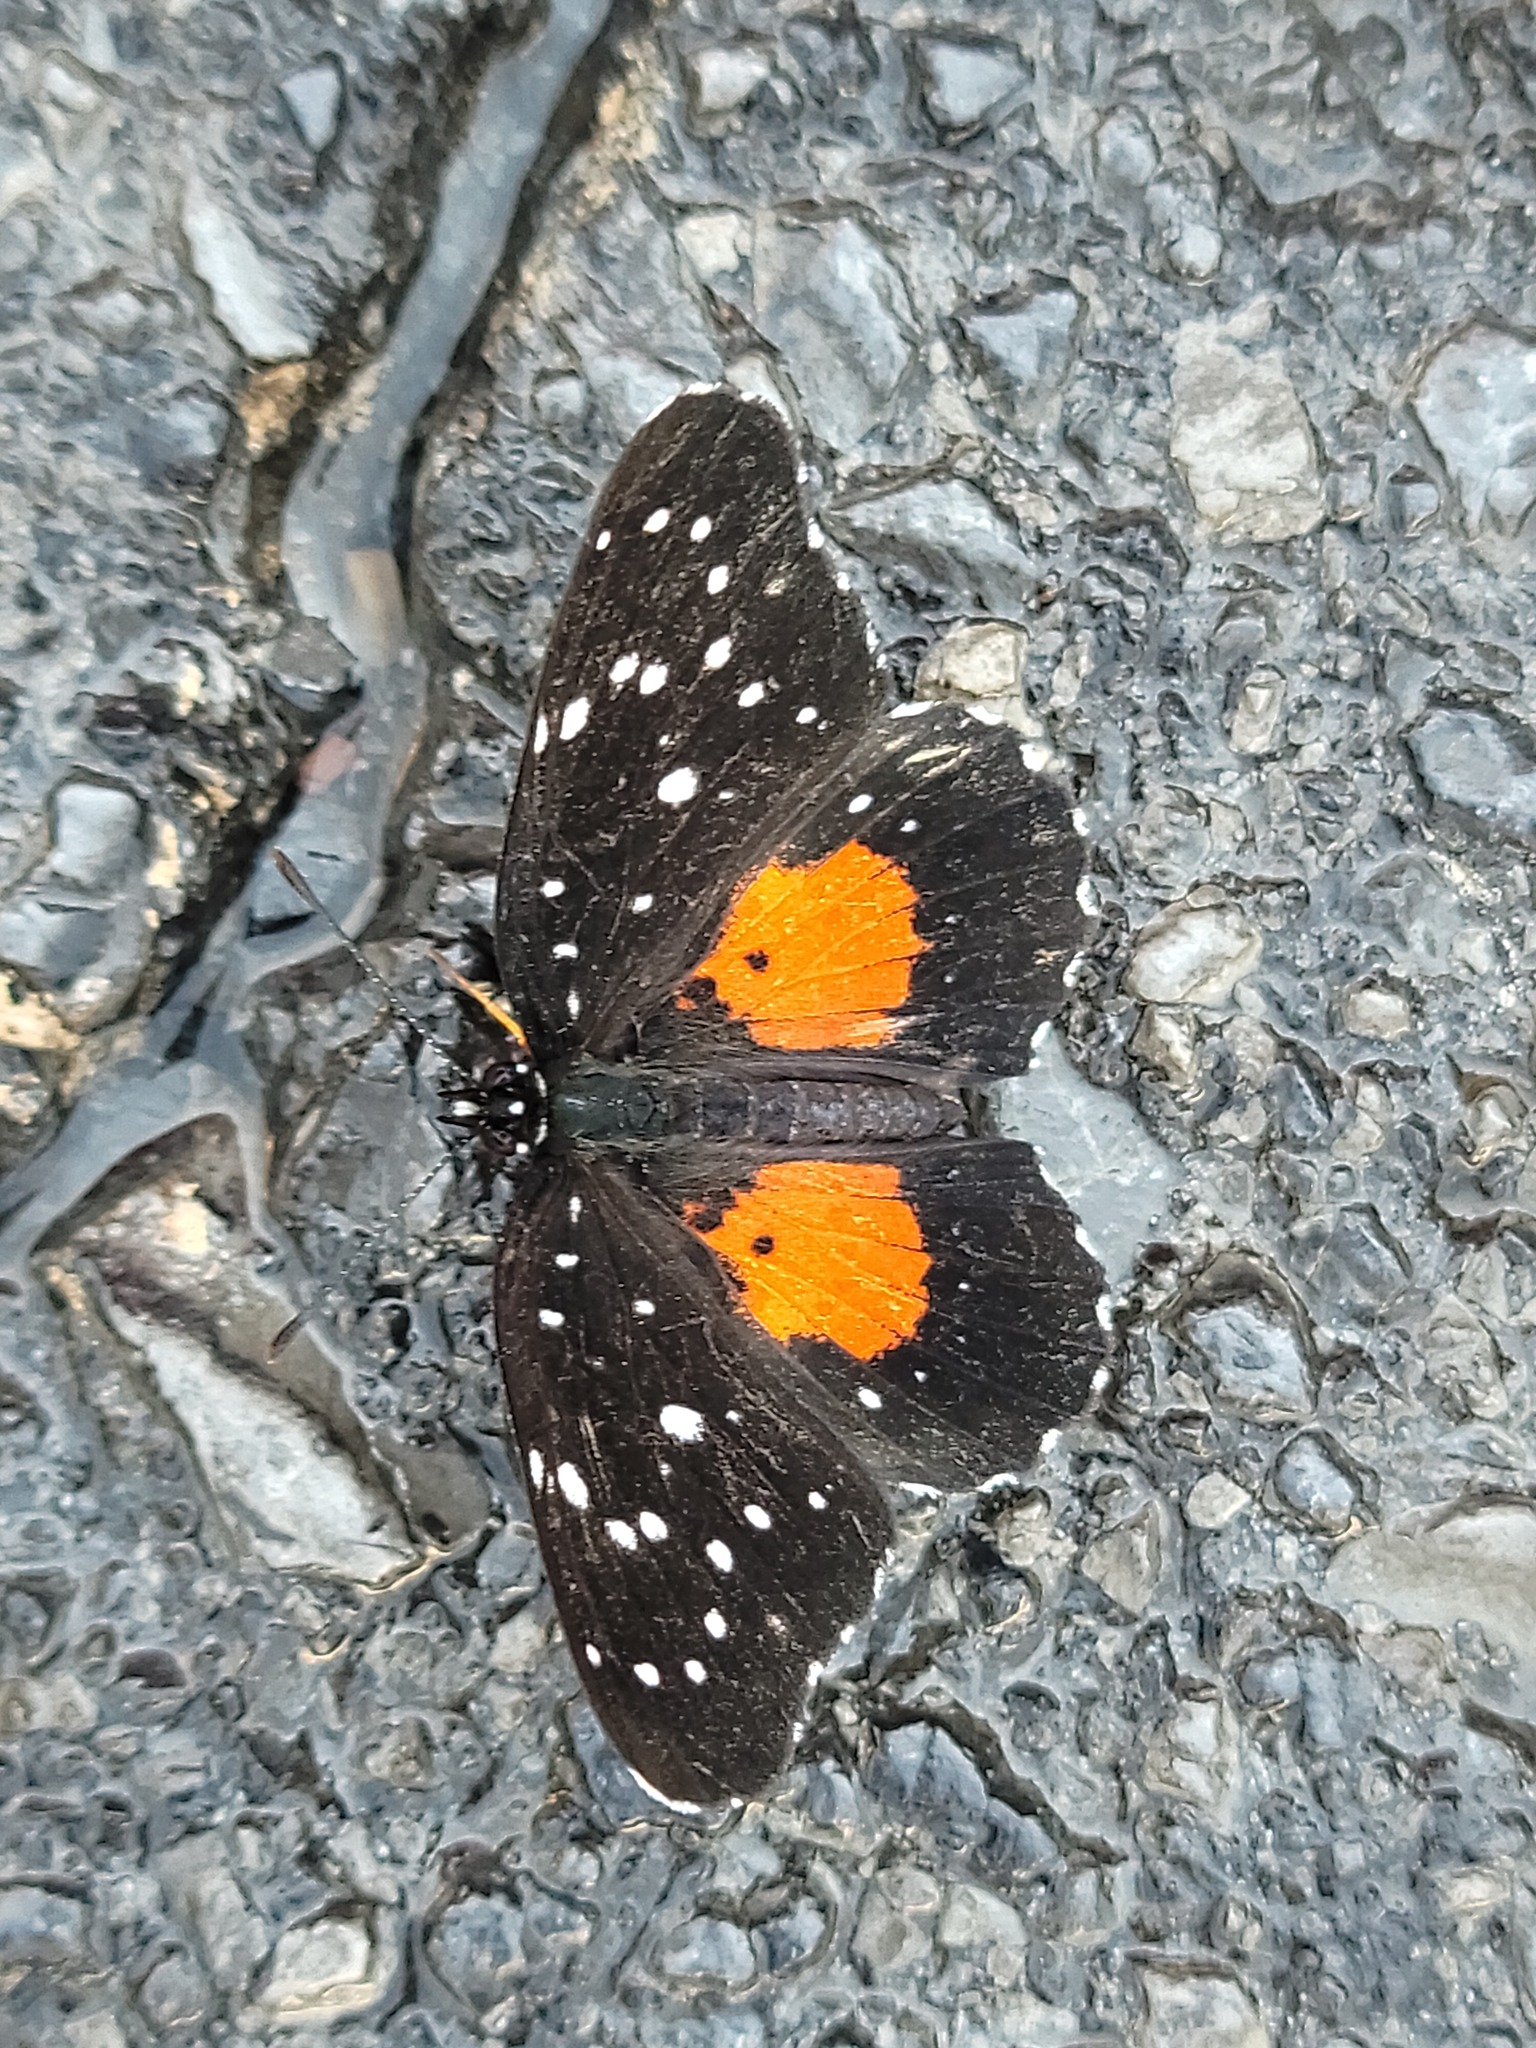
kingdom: Animalia
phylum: Arthropoda
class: Insecta
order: Lepidoptera
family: Nymphalidae
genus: Chlosyne
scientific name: Chlosyne janais
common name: Crimson patch
